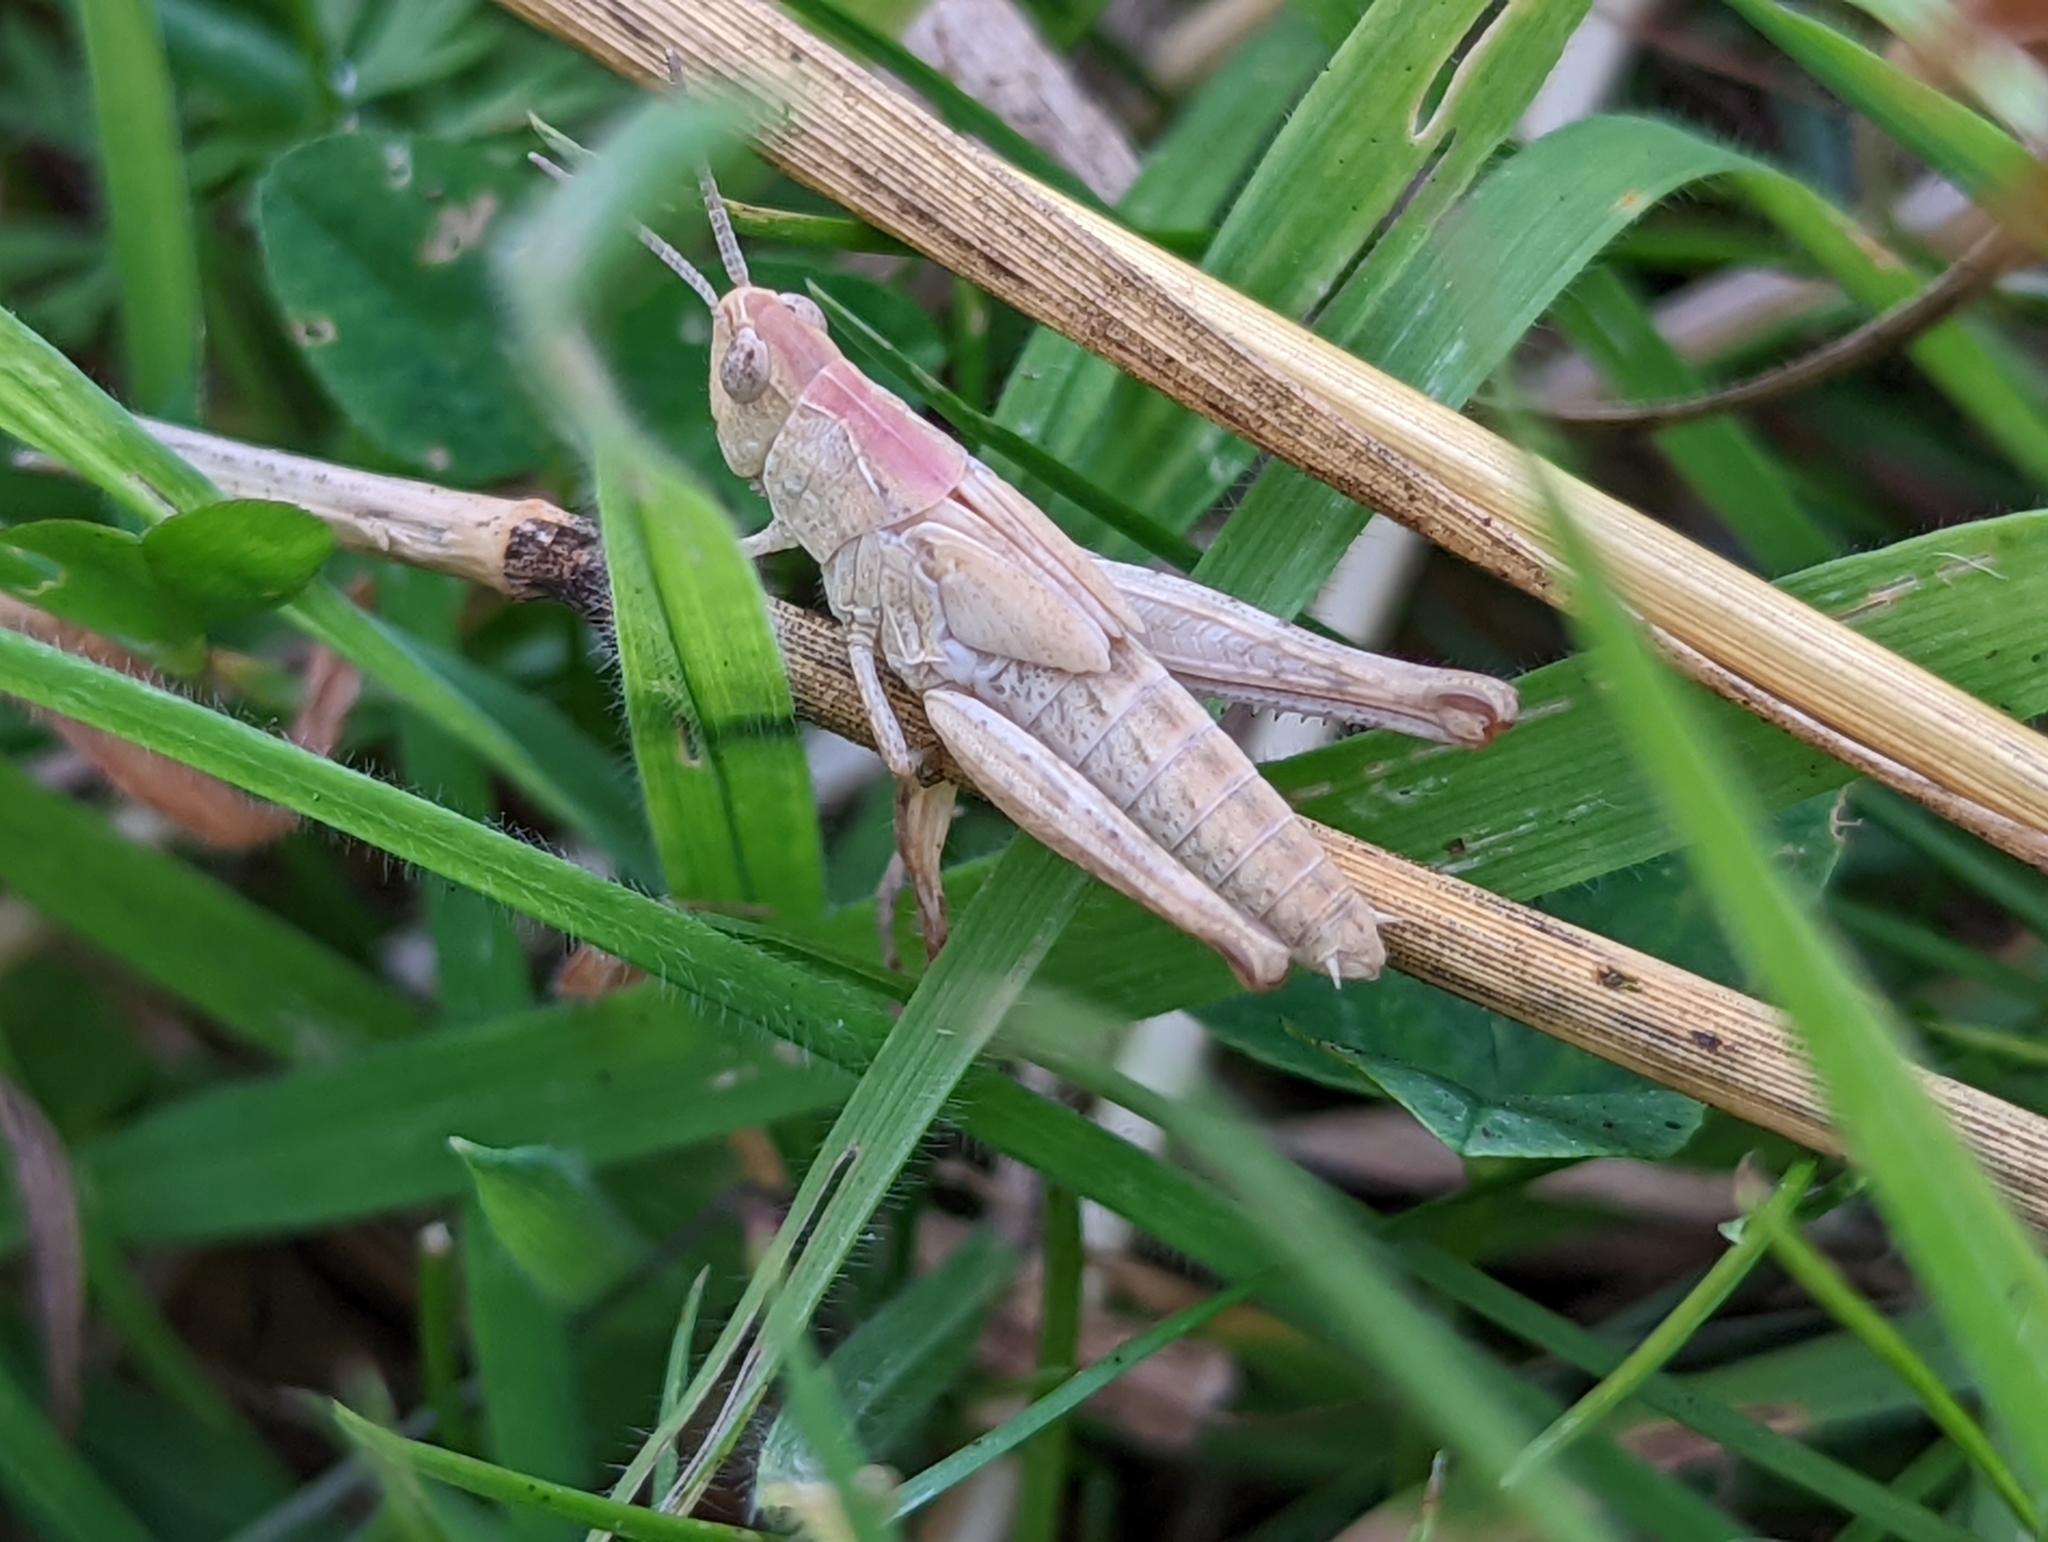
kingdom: Animalia
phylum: Arthropoda
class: Insecta
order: Orthoptera
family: Acrididae
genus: Chorthippus
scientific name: Chorthippus brunneus
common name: Field grasshopper
